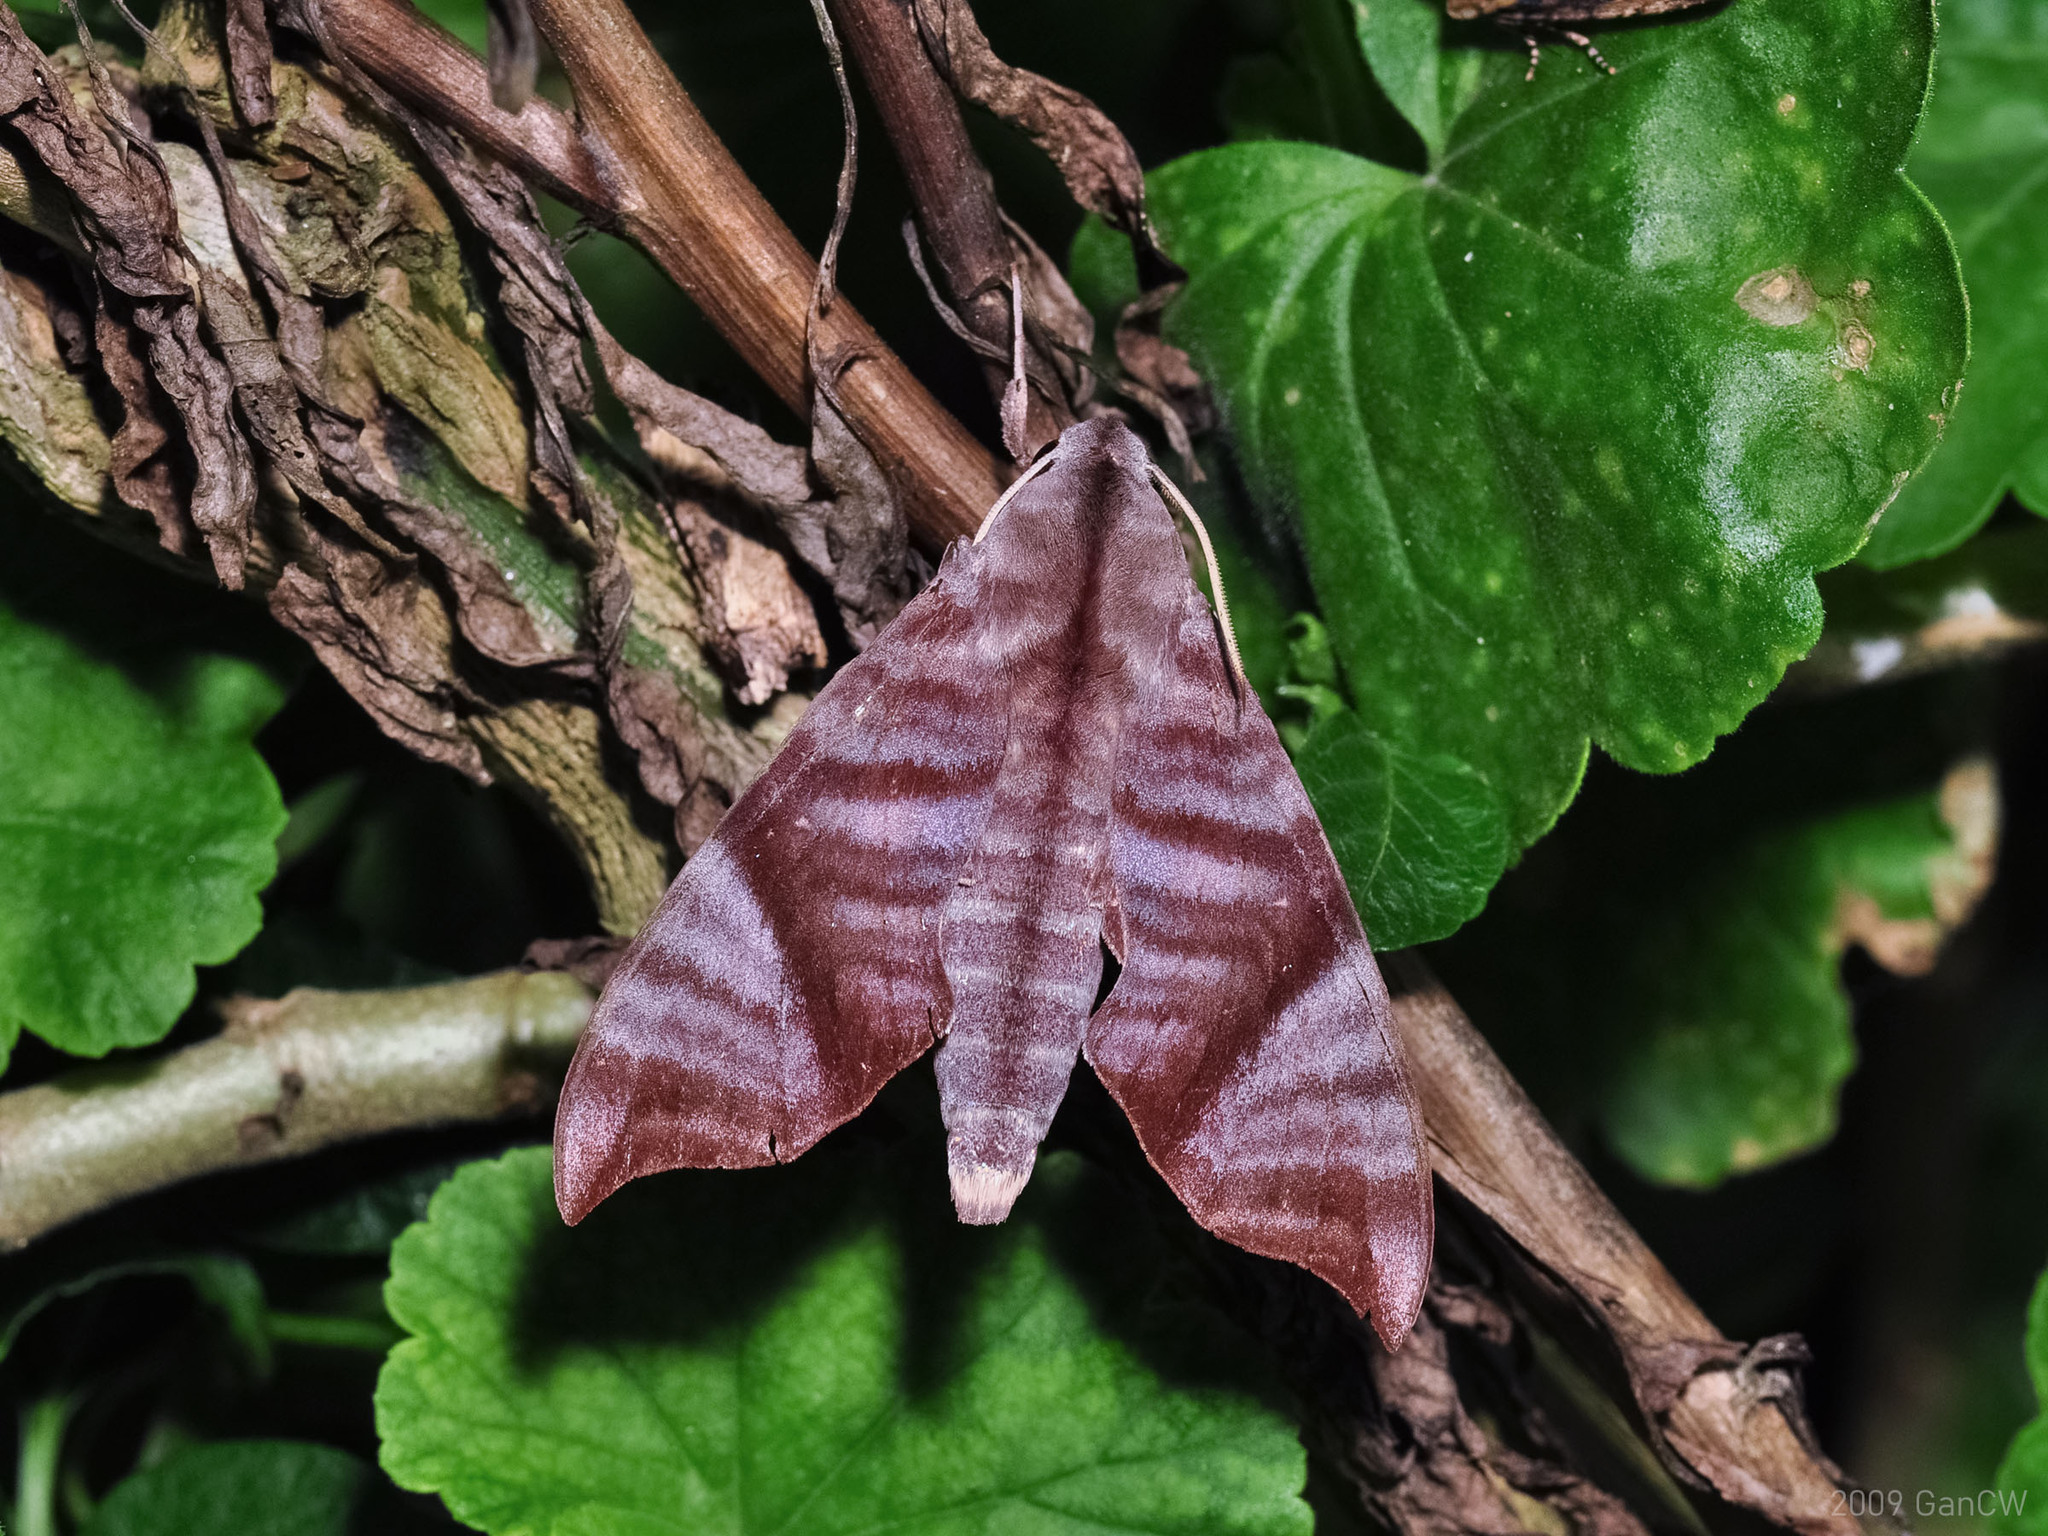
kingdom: Animalia
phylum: Arthropoda
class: Insecta
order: Lepidoptera
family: Sphingidae
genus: Dahira
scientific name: Dahira falcata
